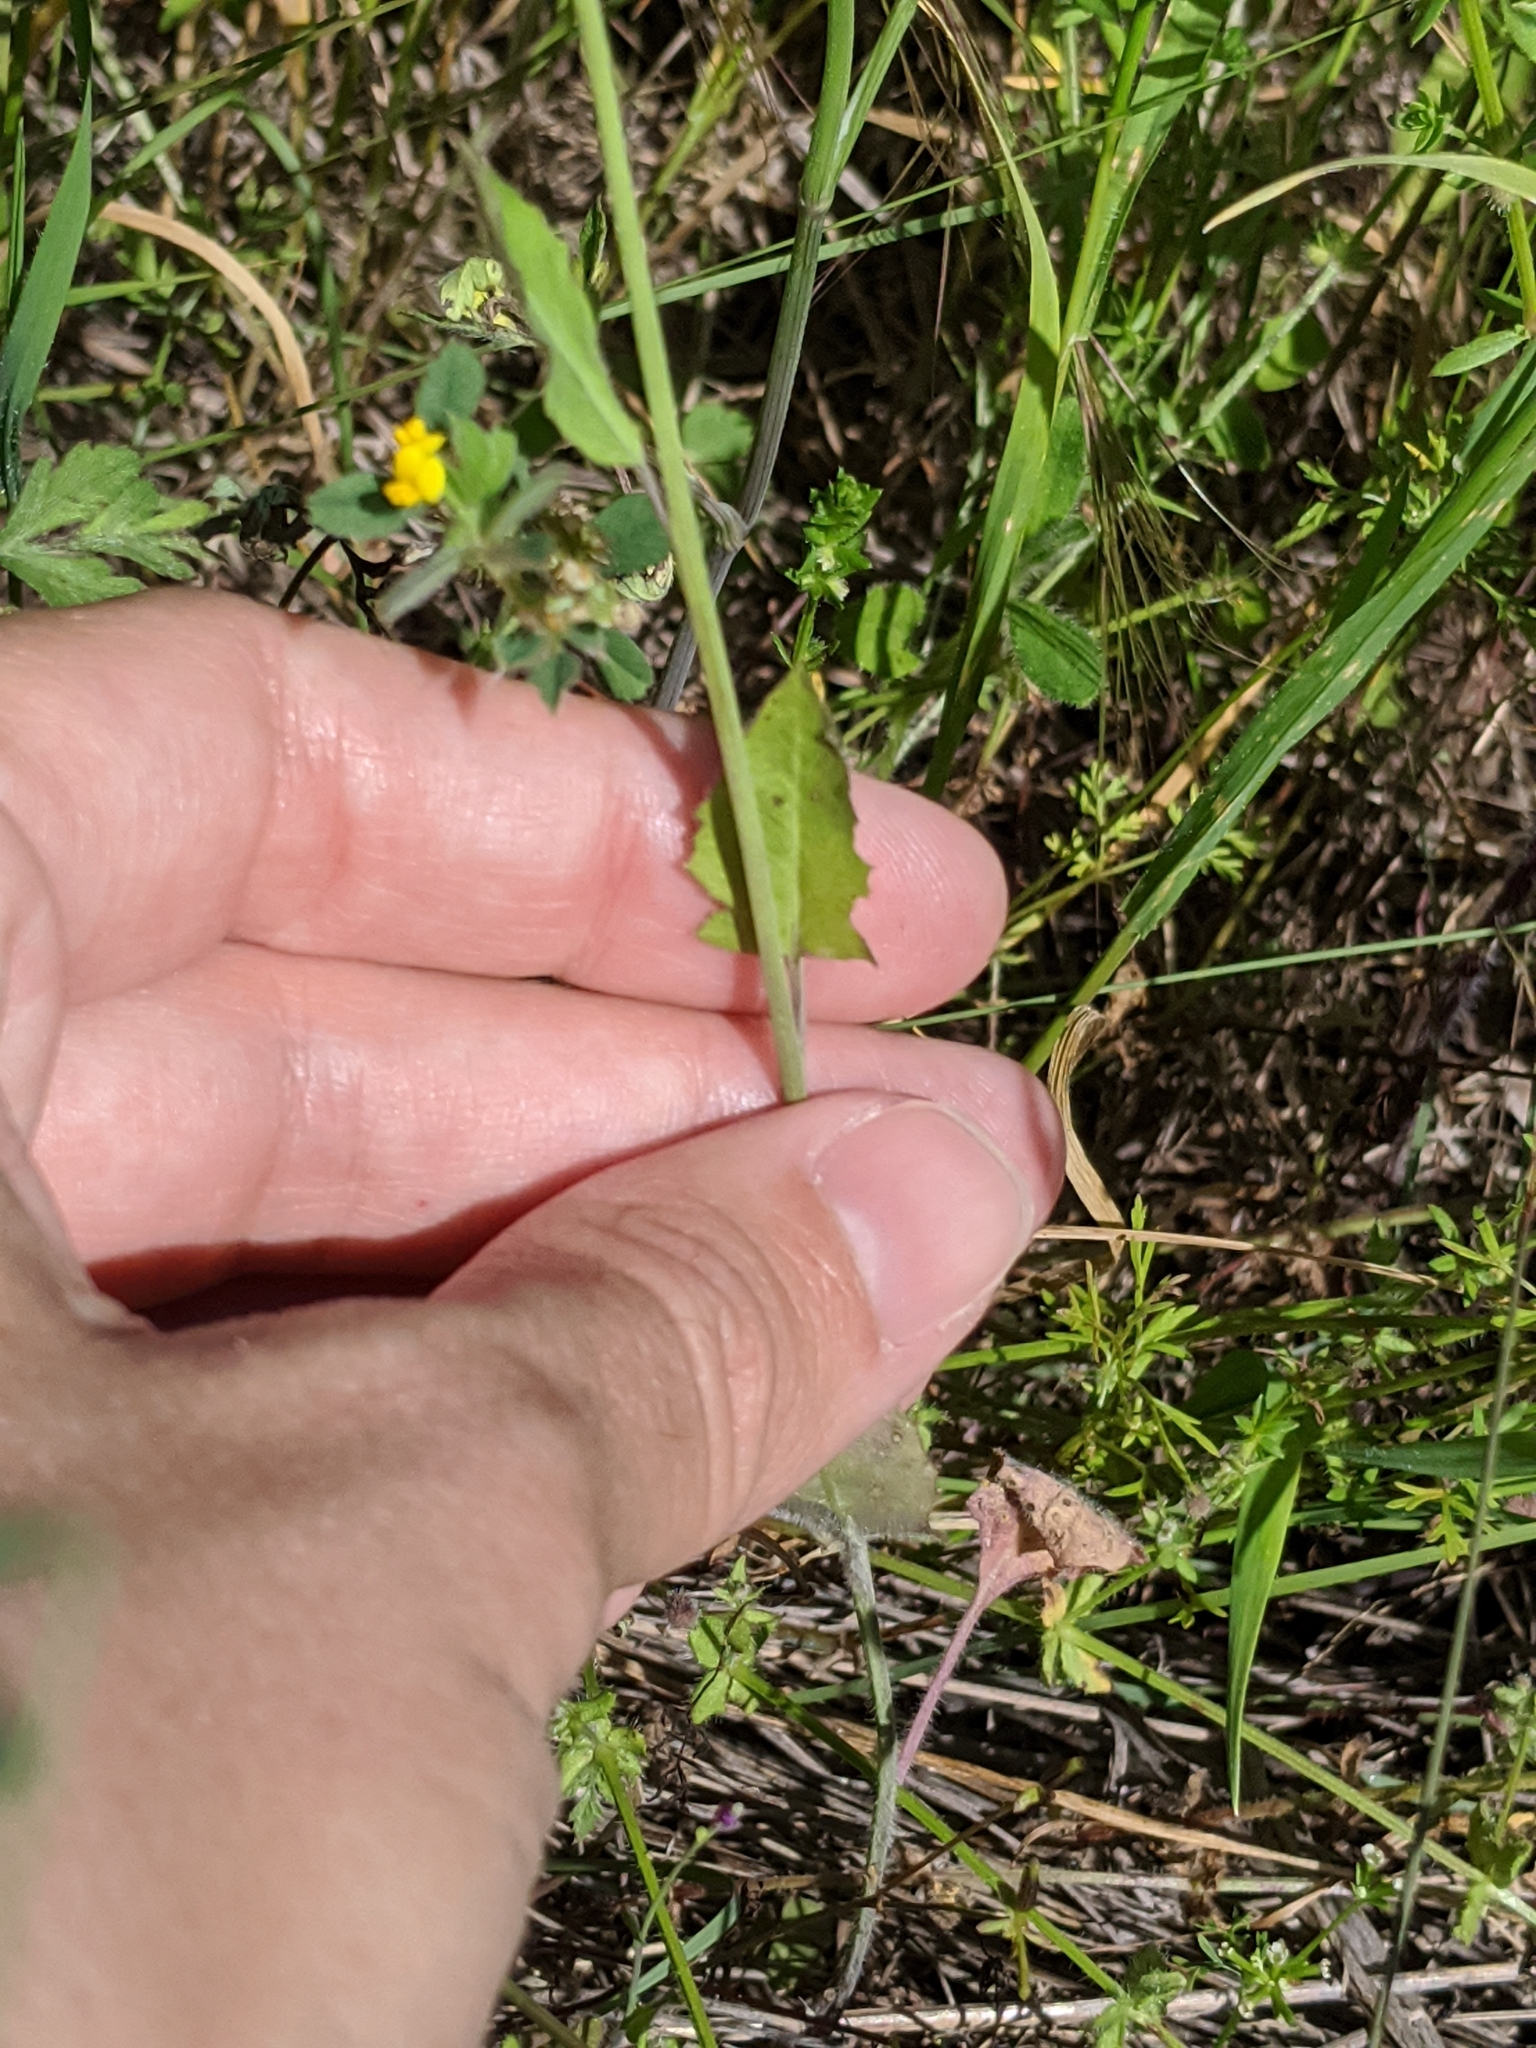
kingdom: Plantae
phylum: Tracheophyta
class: Magnoliopsida
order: Brassicales
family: Brassicaceae
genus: Streptanthus
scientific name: Streptanthus petiolaris
